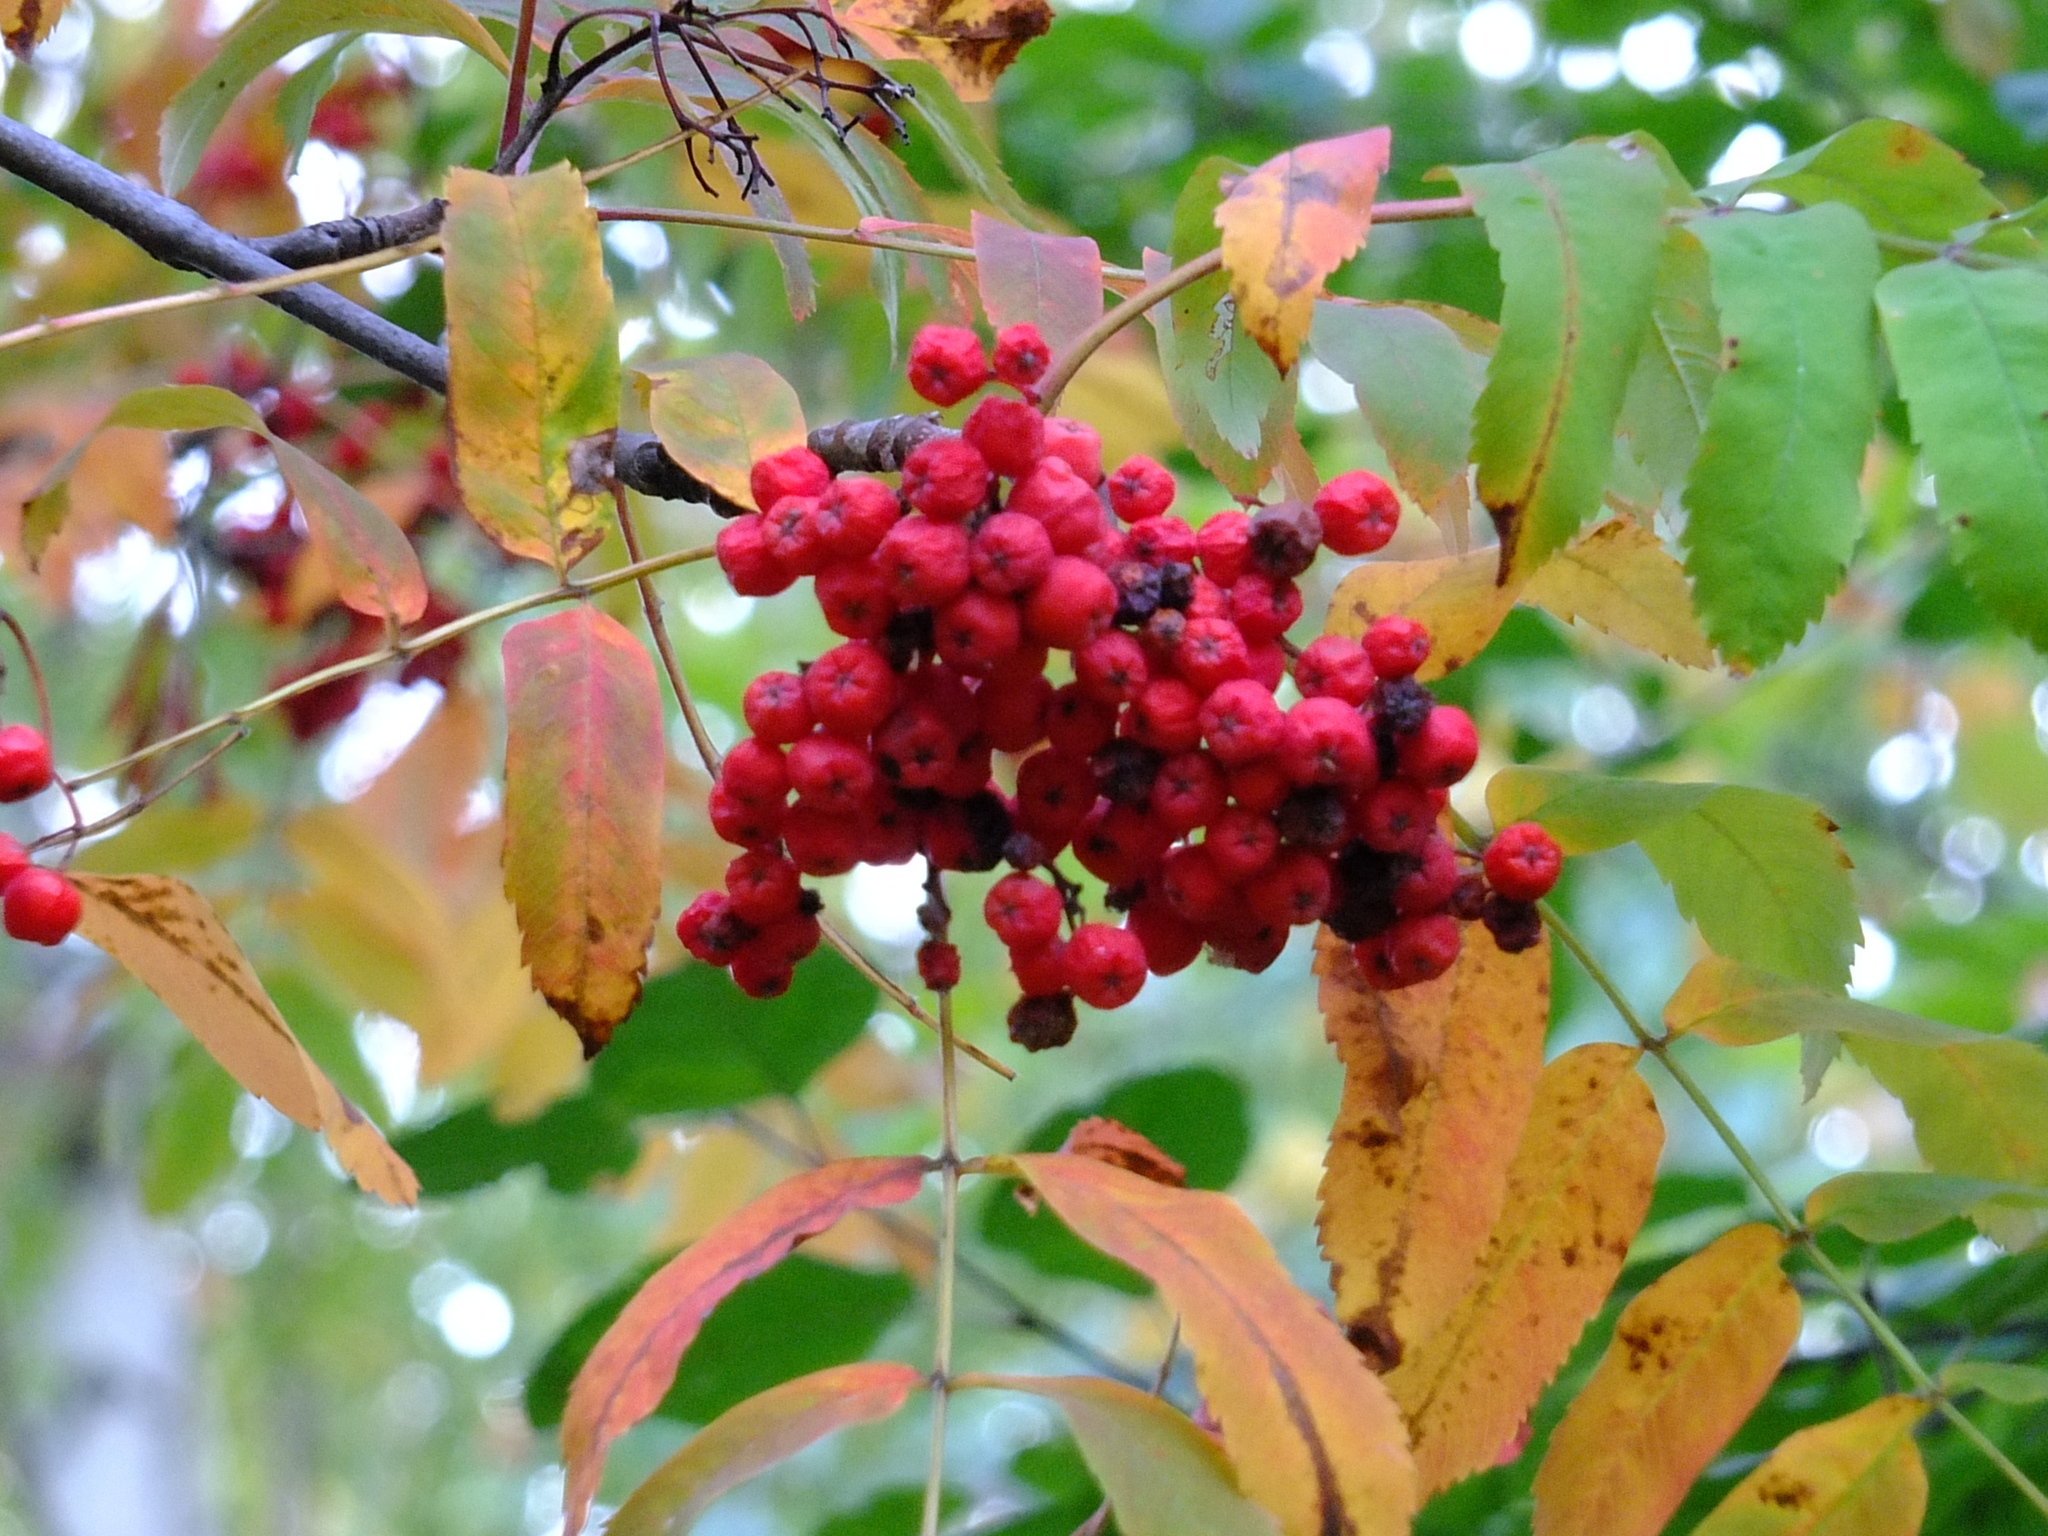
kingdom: Plantae
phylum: Tracheophyta
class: Magnoliopsida
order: Rosales
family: Rosaceae
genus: Sorbus
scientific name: Sorbus aucuparia
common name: Rowan
